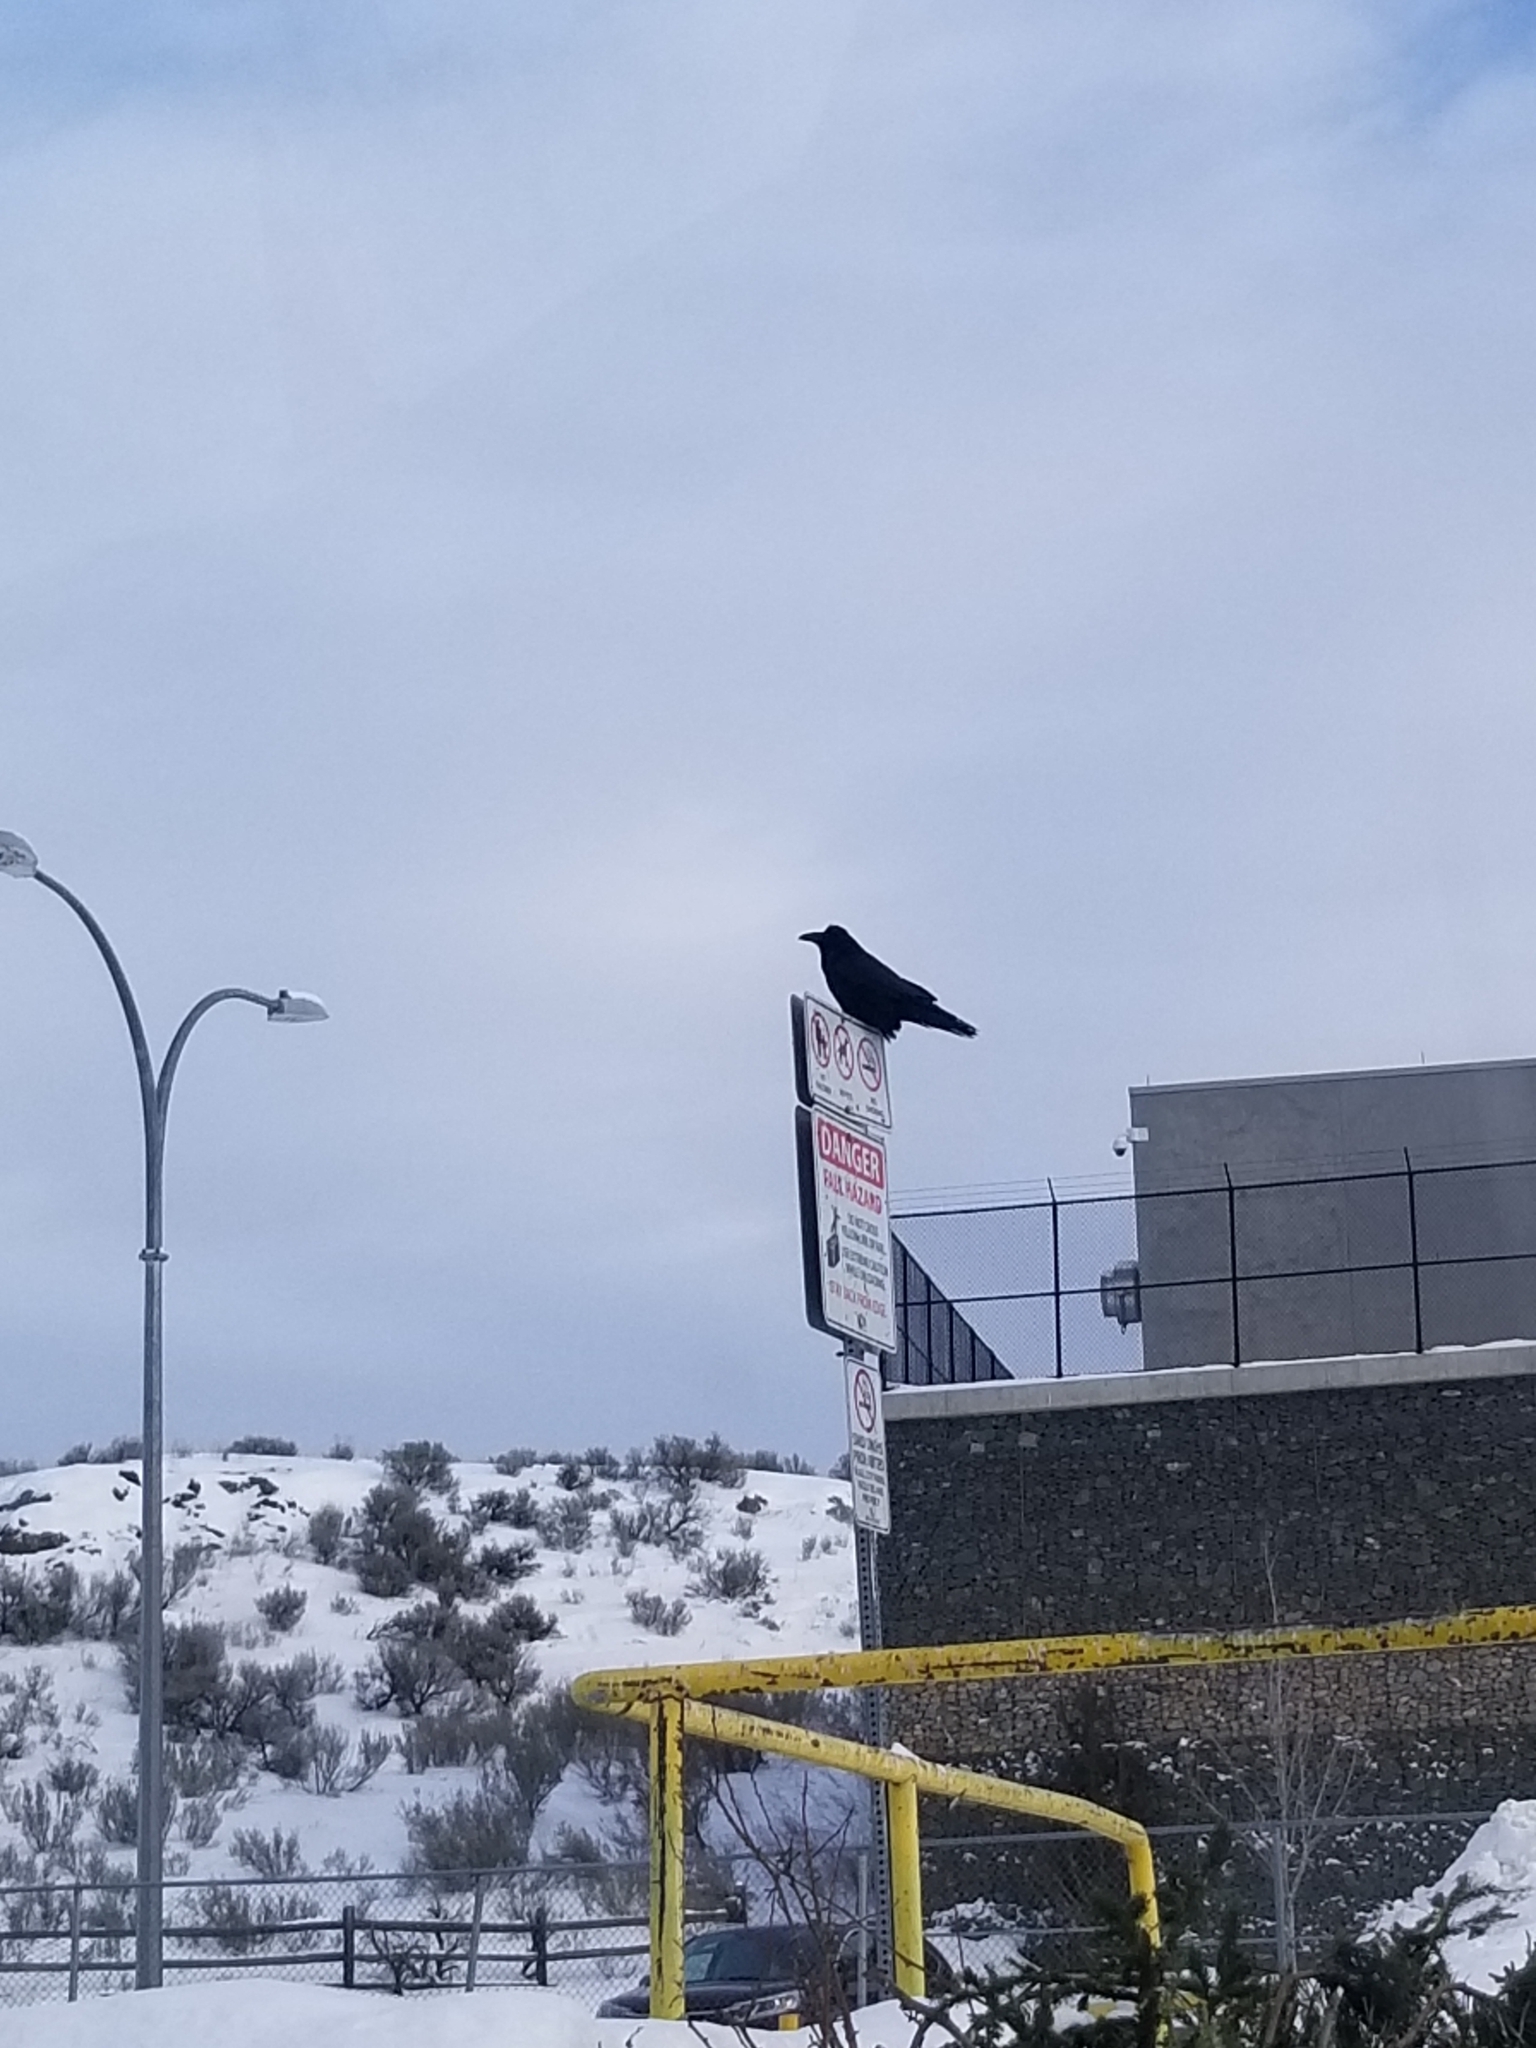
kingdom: Animalia
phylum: Chordata
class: Aves
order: Passeriformes
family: Corvidae
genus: Corvus
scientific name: Corvus corax
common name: Common raven
